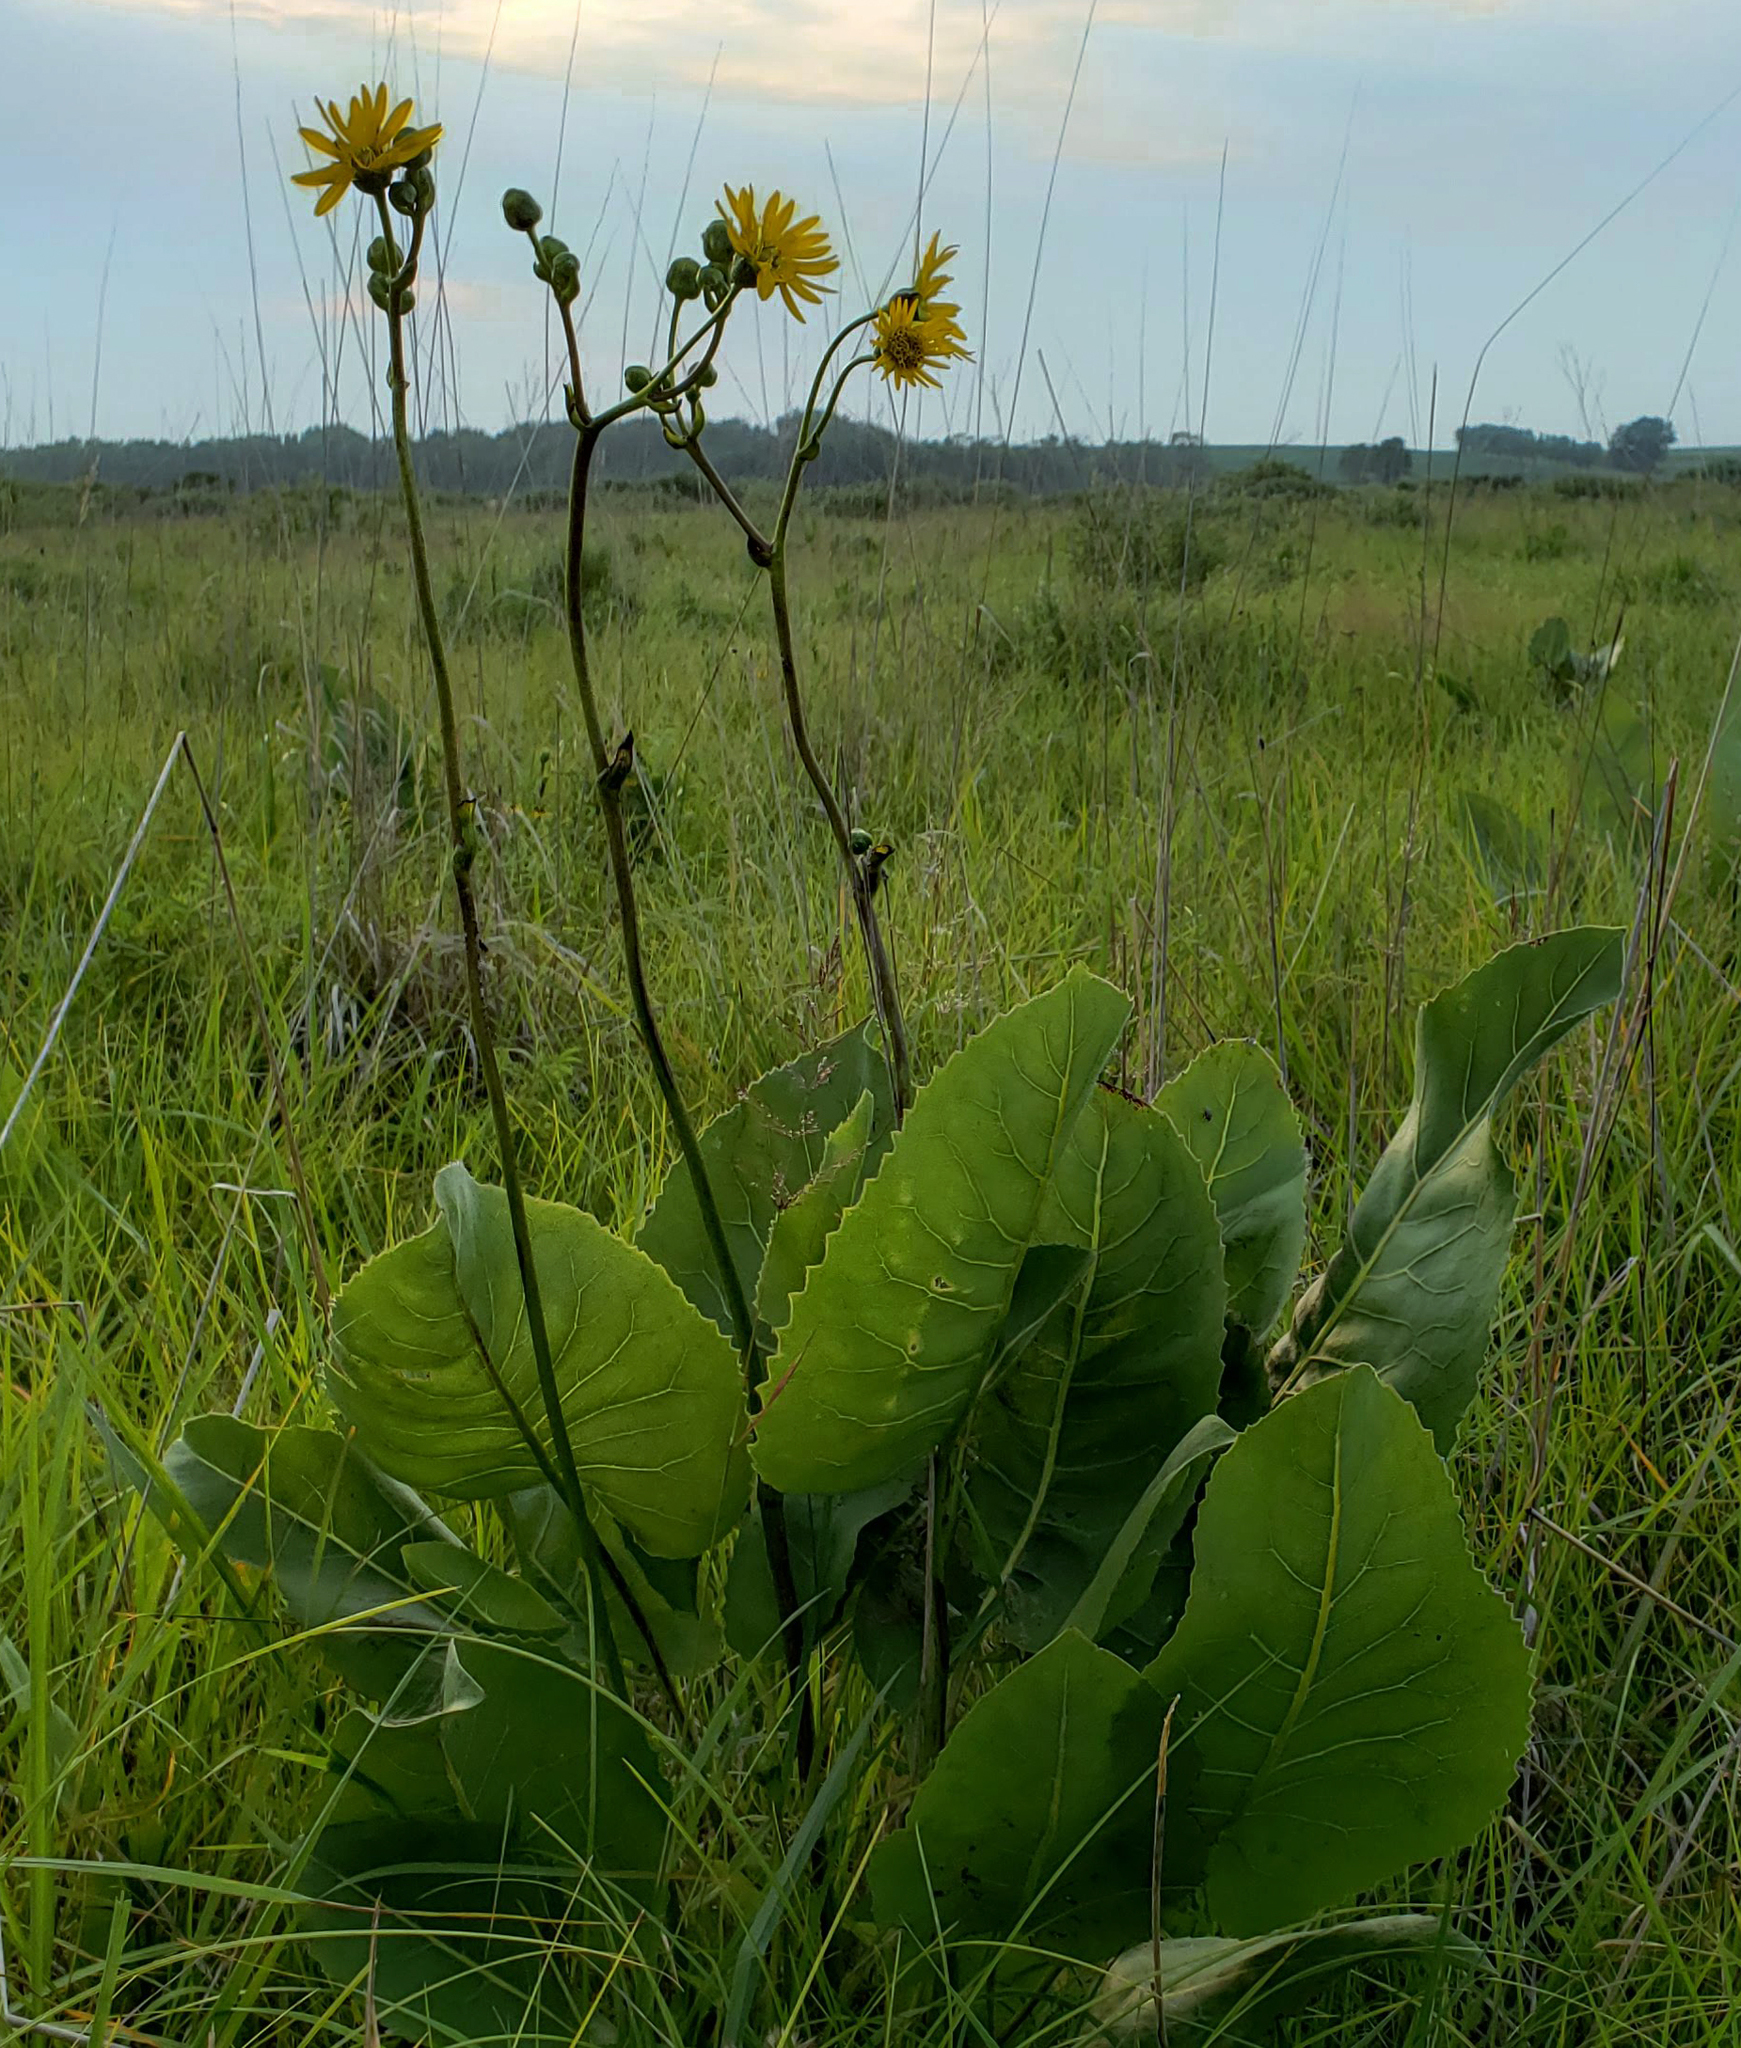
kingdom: Plantae
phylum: Tracheophyta
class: Magnoliopsida
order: Asterales
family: Asteraceae
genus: Silphium
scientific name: Silphium terebinthinaceum
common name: Basal-leaf rosinweed
